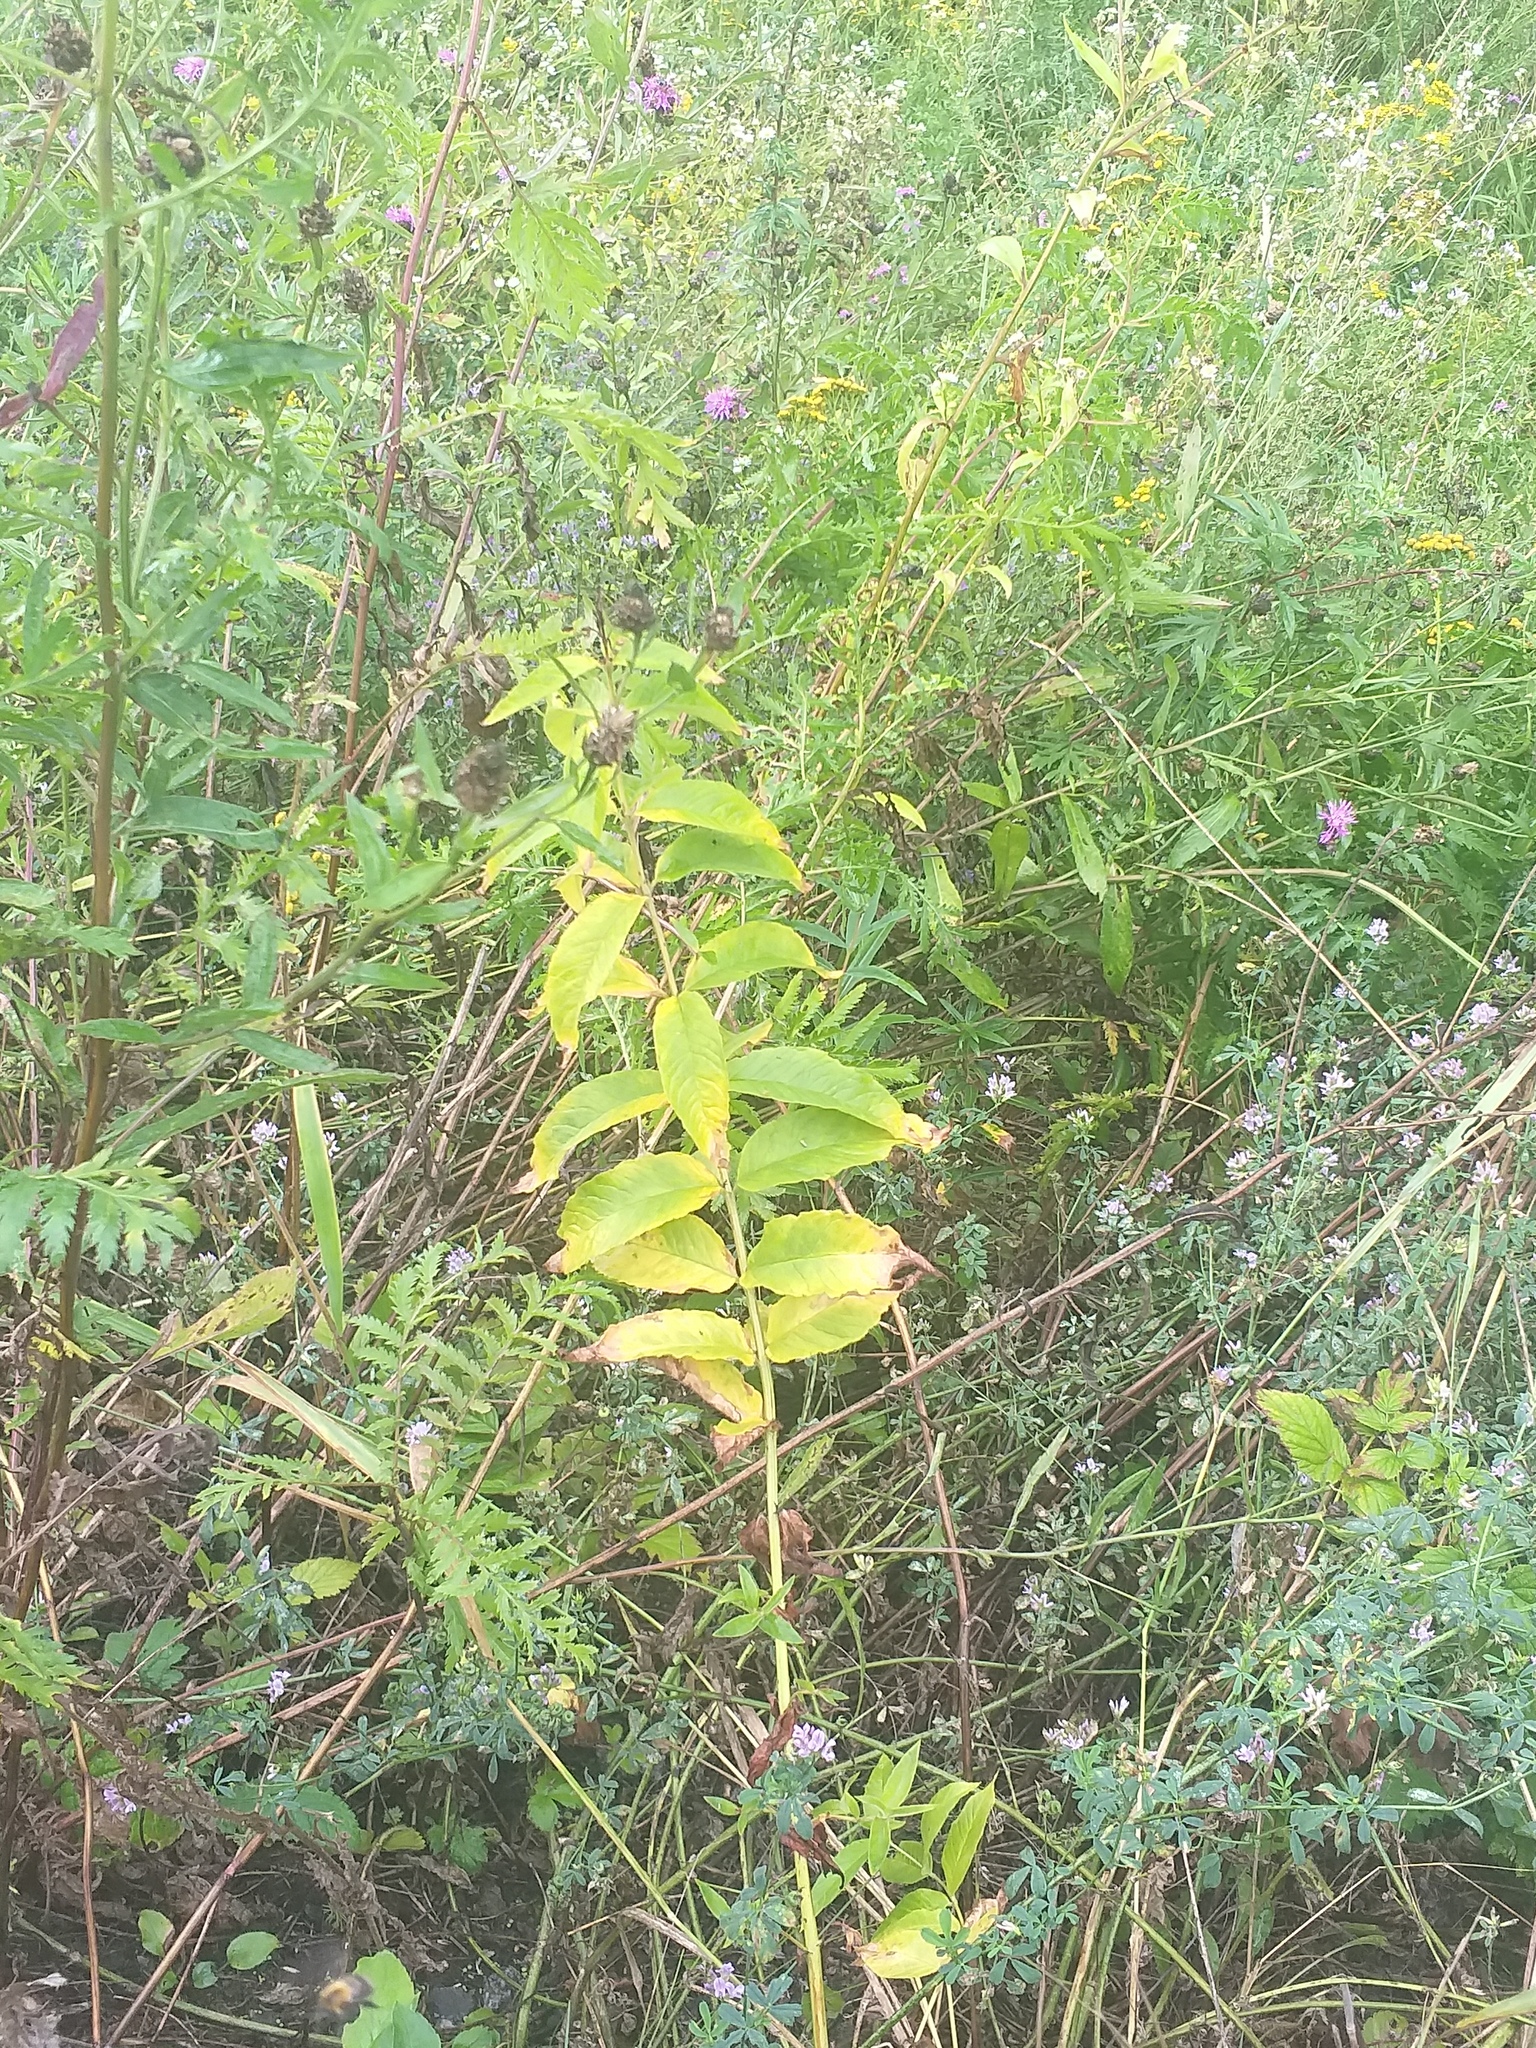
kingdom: Plantae
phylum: Tracheophyta
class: Magnoliopsida
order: Ericales
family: Primulaceae
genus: Lysimachia
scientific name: Lysimachia vulgaris
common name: Yellow loosestrife
